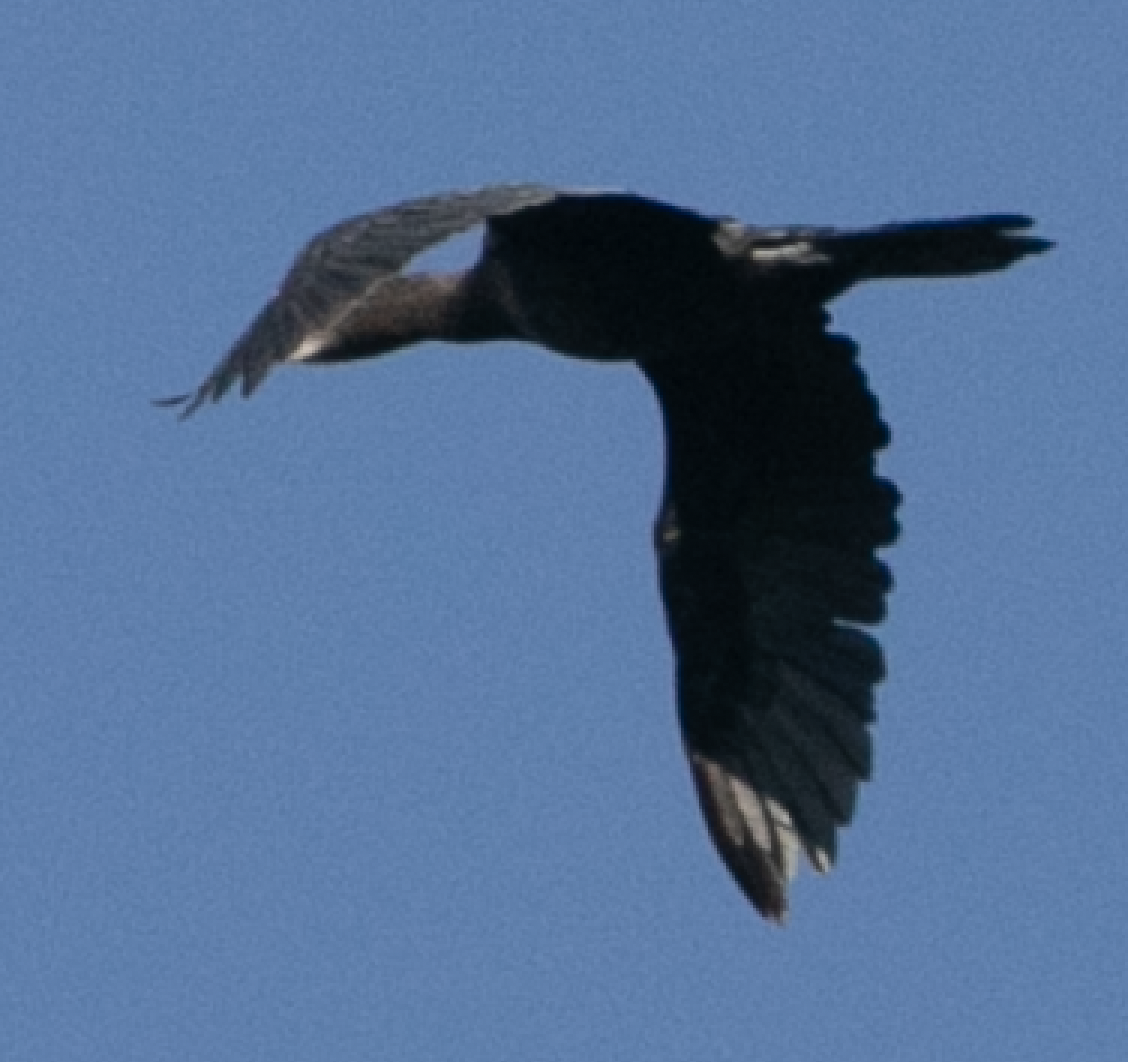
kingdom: Animalia
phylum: Chordata
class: Aves
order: Suliformes
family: Phalacrocoracidae
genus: Microcarbo
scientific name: Microcarbo pygmaeus
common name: Pygmy cormorant
